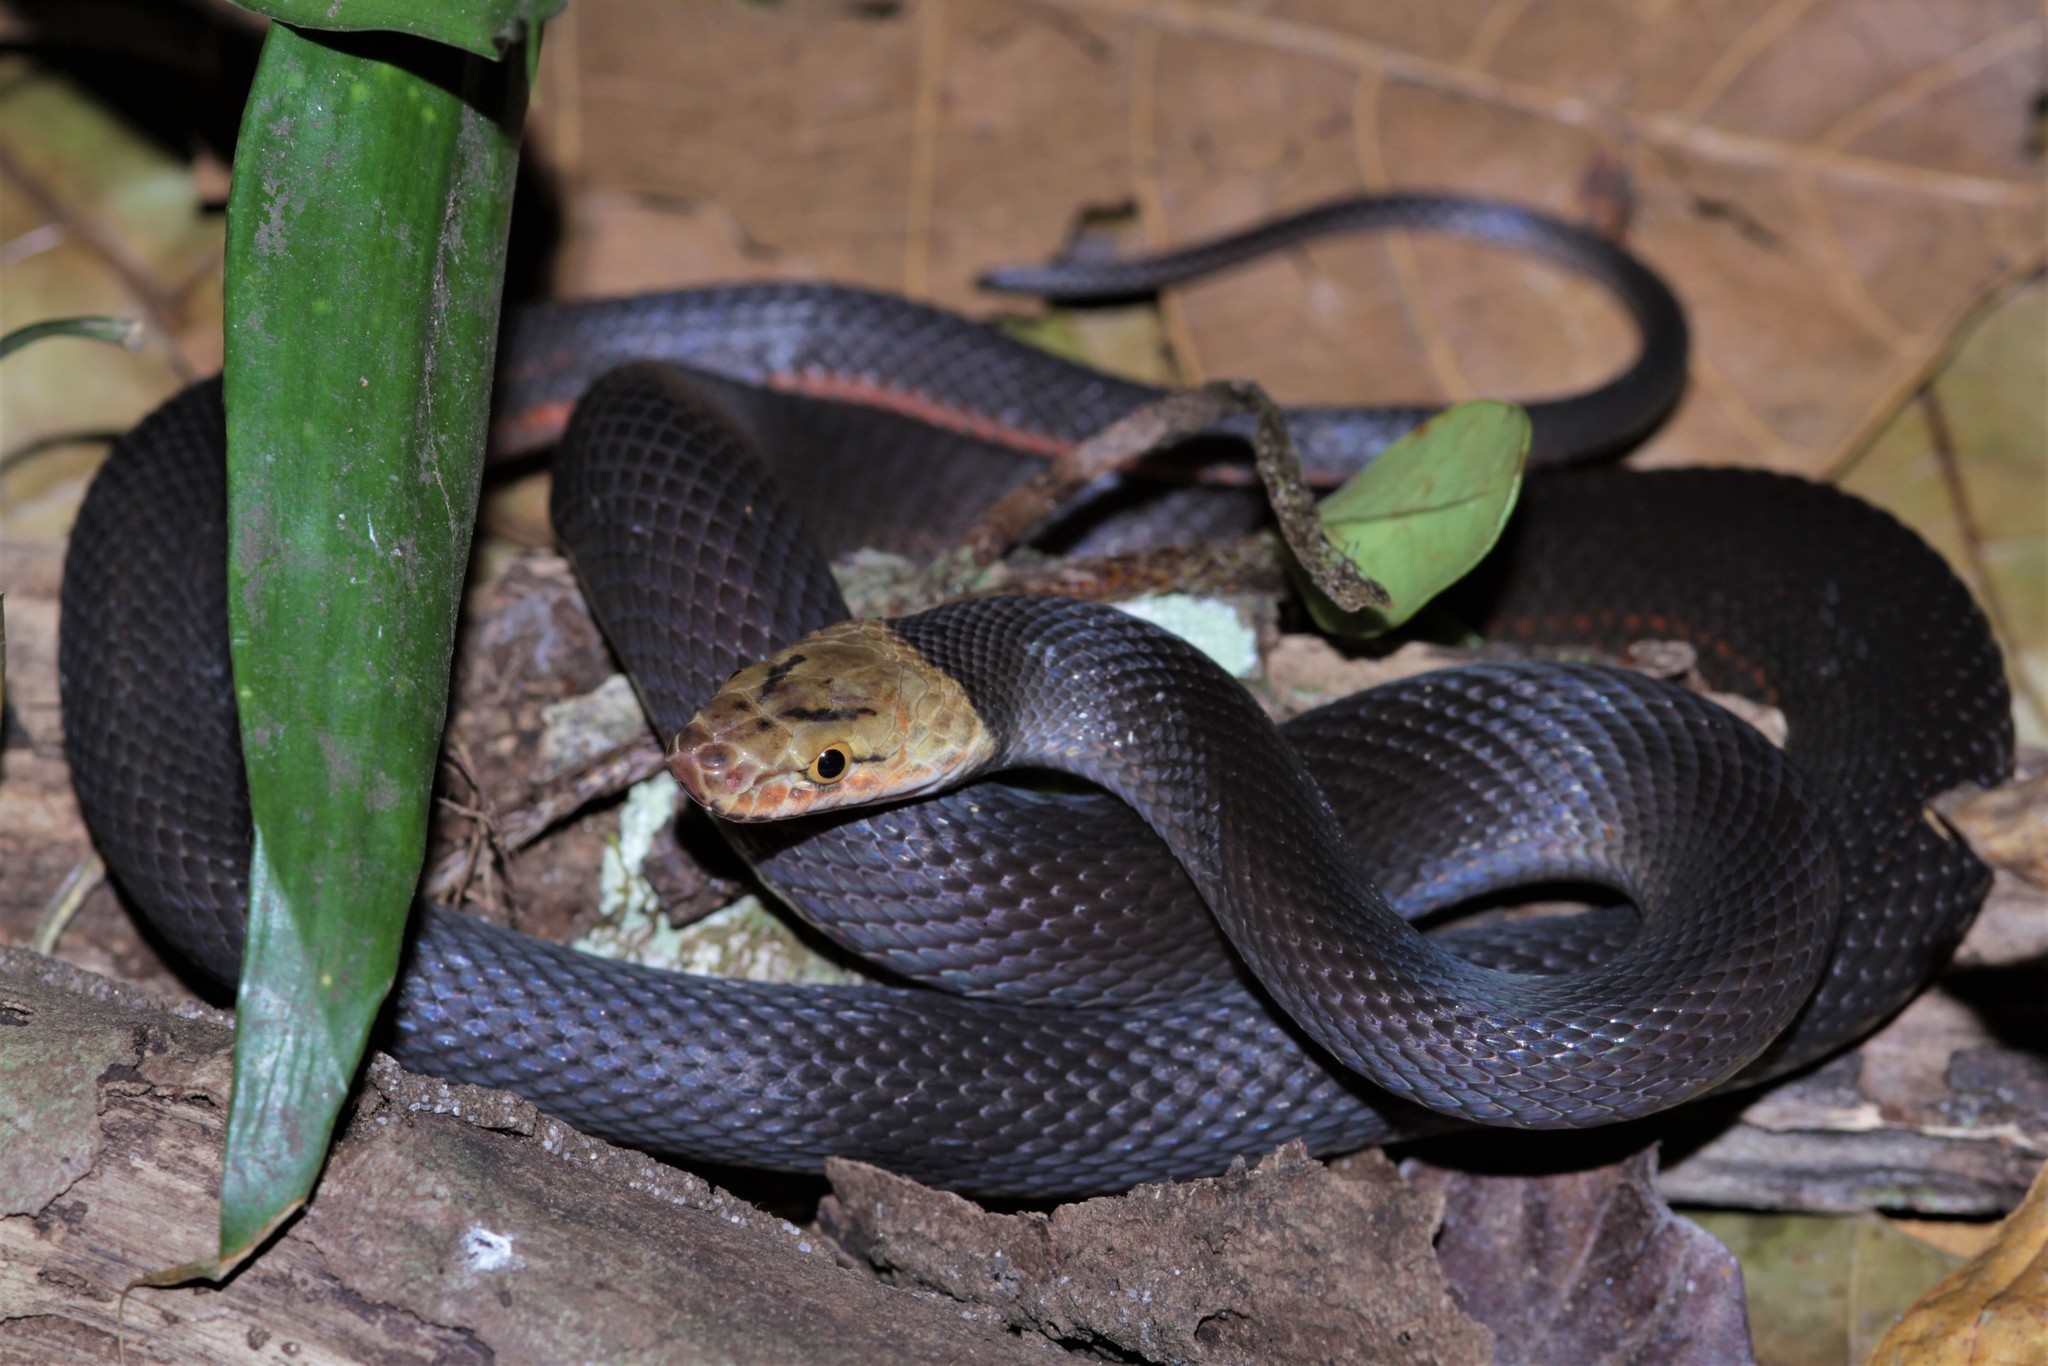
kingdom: Animalia
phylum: Chordata
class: Squamata
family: Lamprophiidae
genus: Bothrophthalmus
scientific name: Bothrophthalmus brunneus
